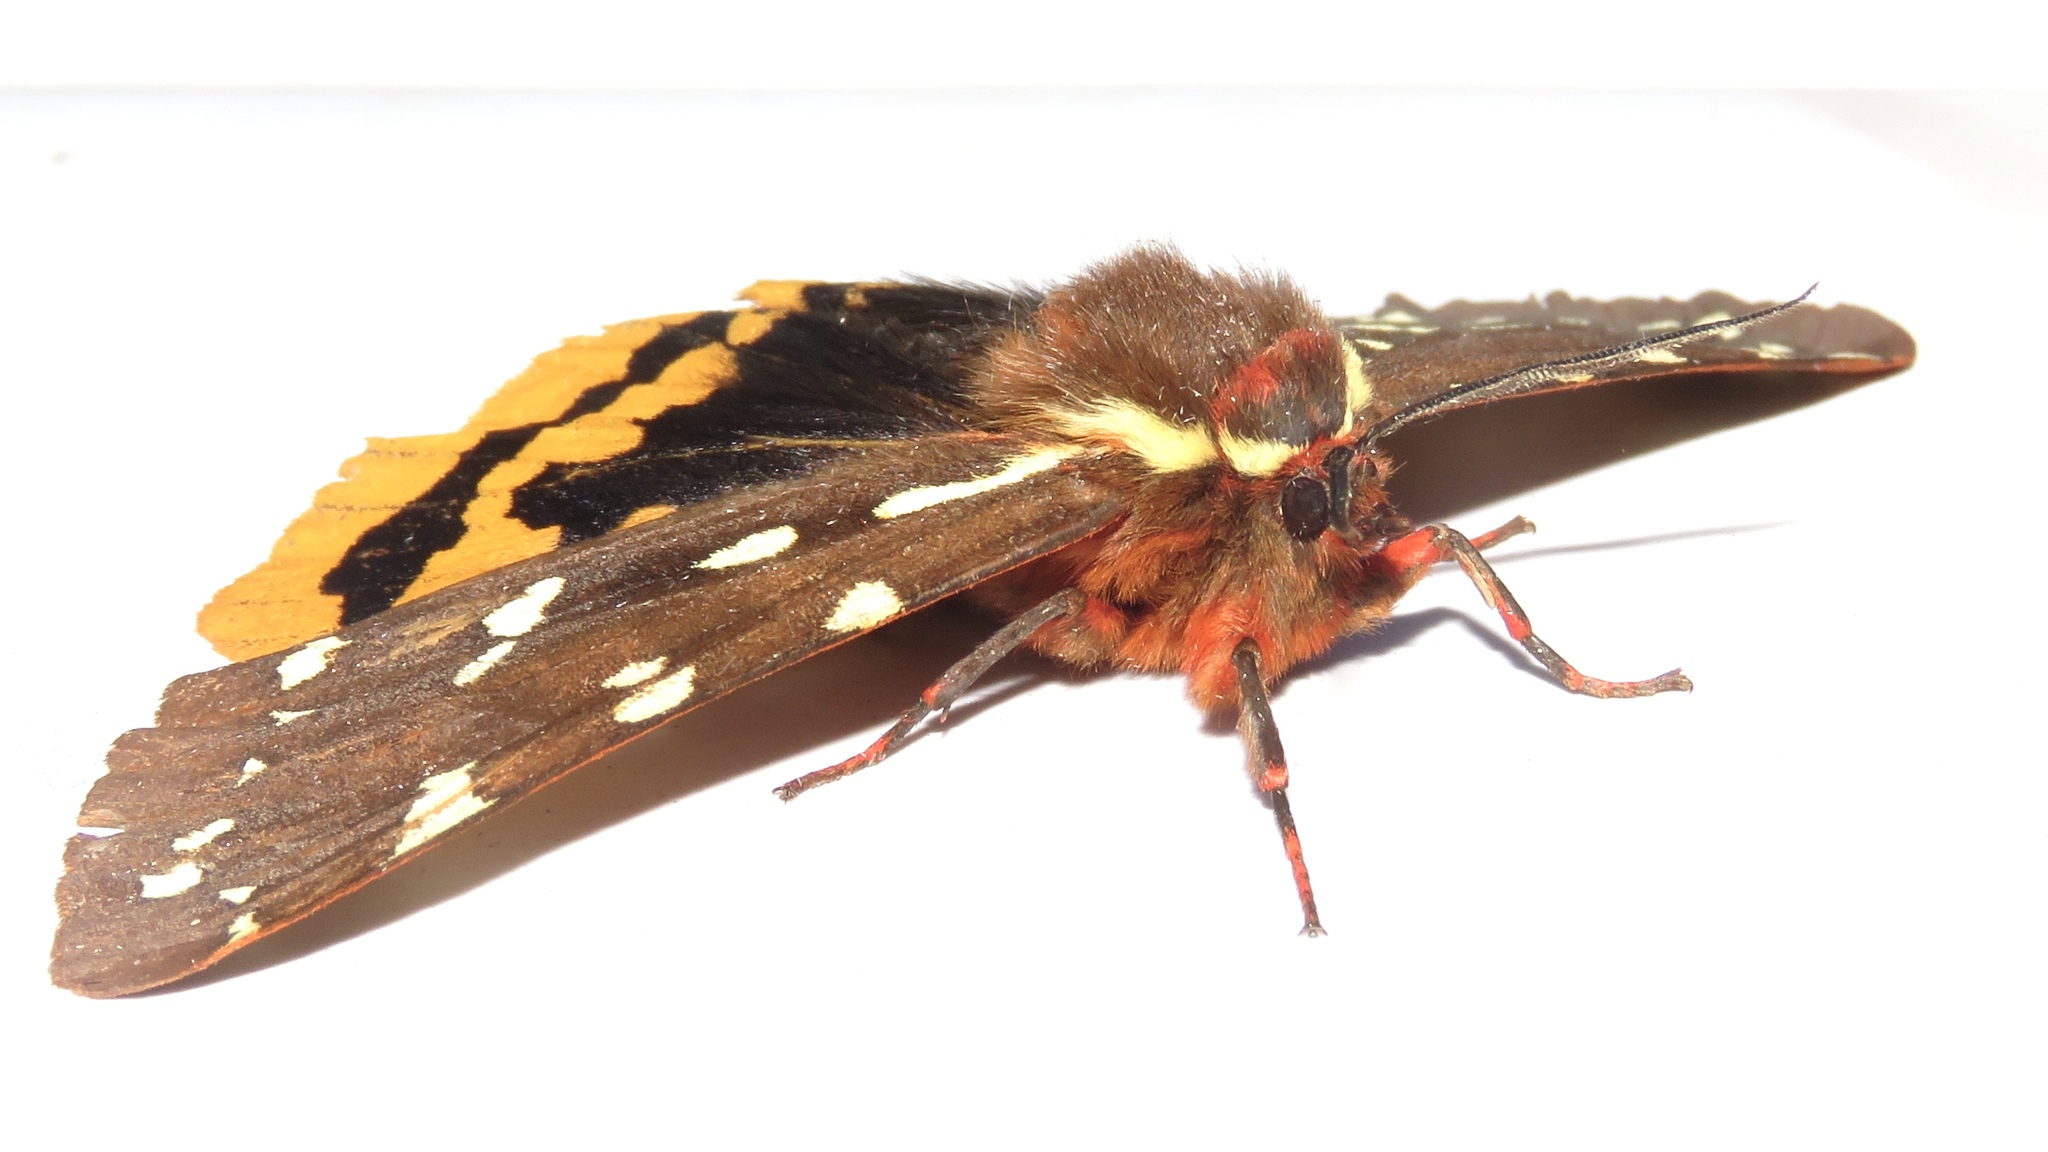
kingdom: Animalia
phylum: Arthropoda
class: Insecta
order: Lepidoptera
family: Erebidae
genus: Arctia
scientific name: Arctia parthenos
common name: St. lawrence tiger moth
